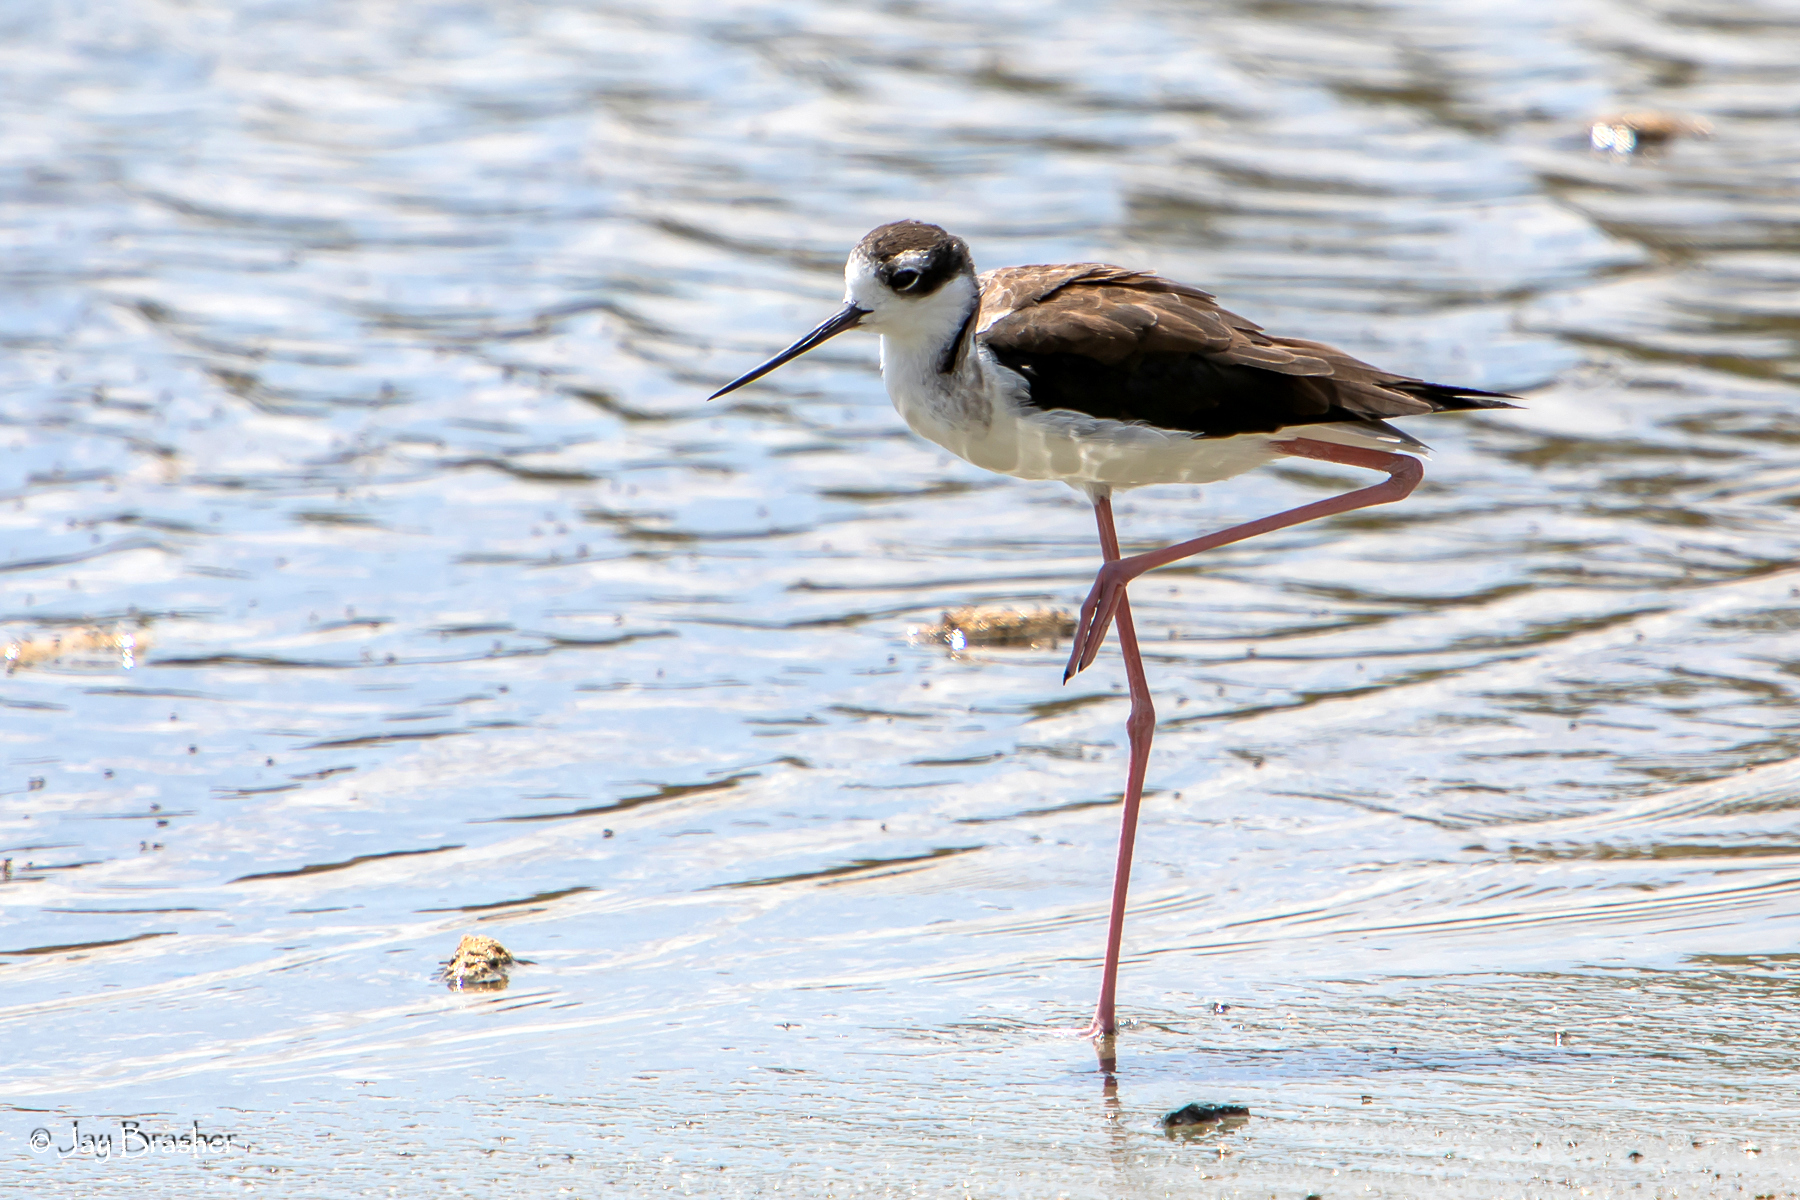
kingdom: Animalia
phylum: Chordata
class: Aves
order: Charadriiformes
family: Recurvirostridae
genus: Himantopus
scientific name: Himantopus mexicanus
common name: Black-necked stilt
